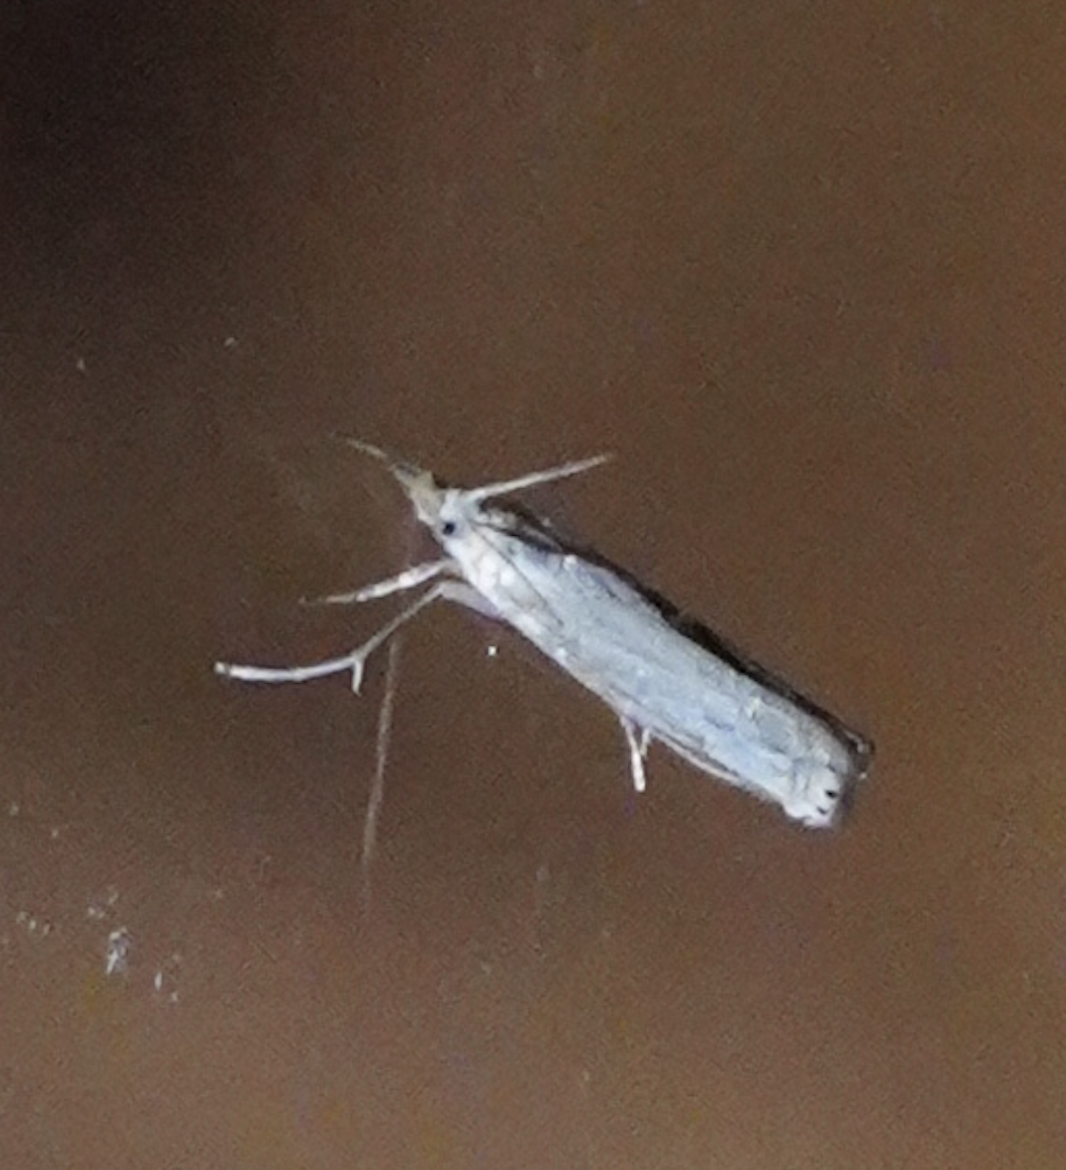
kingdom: Animalia
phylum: Arthropoda
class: Insecta
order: Lepidoptera
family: Crambidae
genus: Crambus
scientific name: Crambus albellus
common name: Small white grass-veneer
